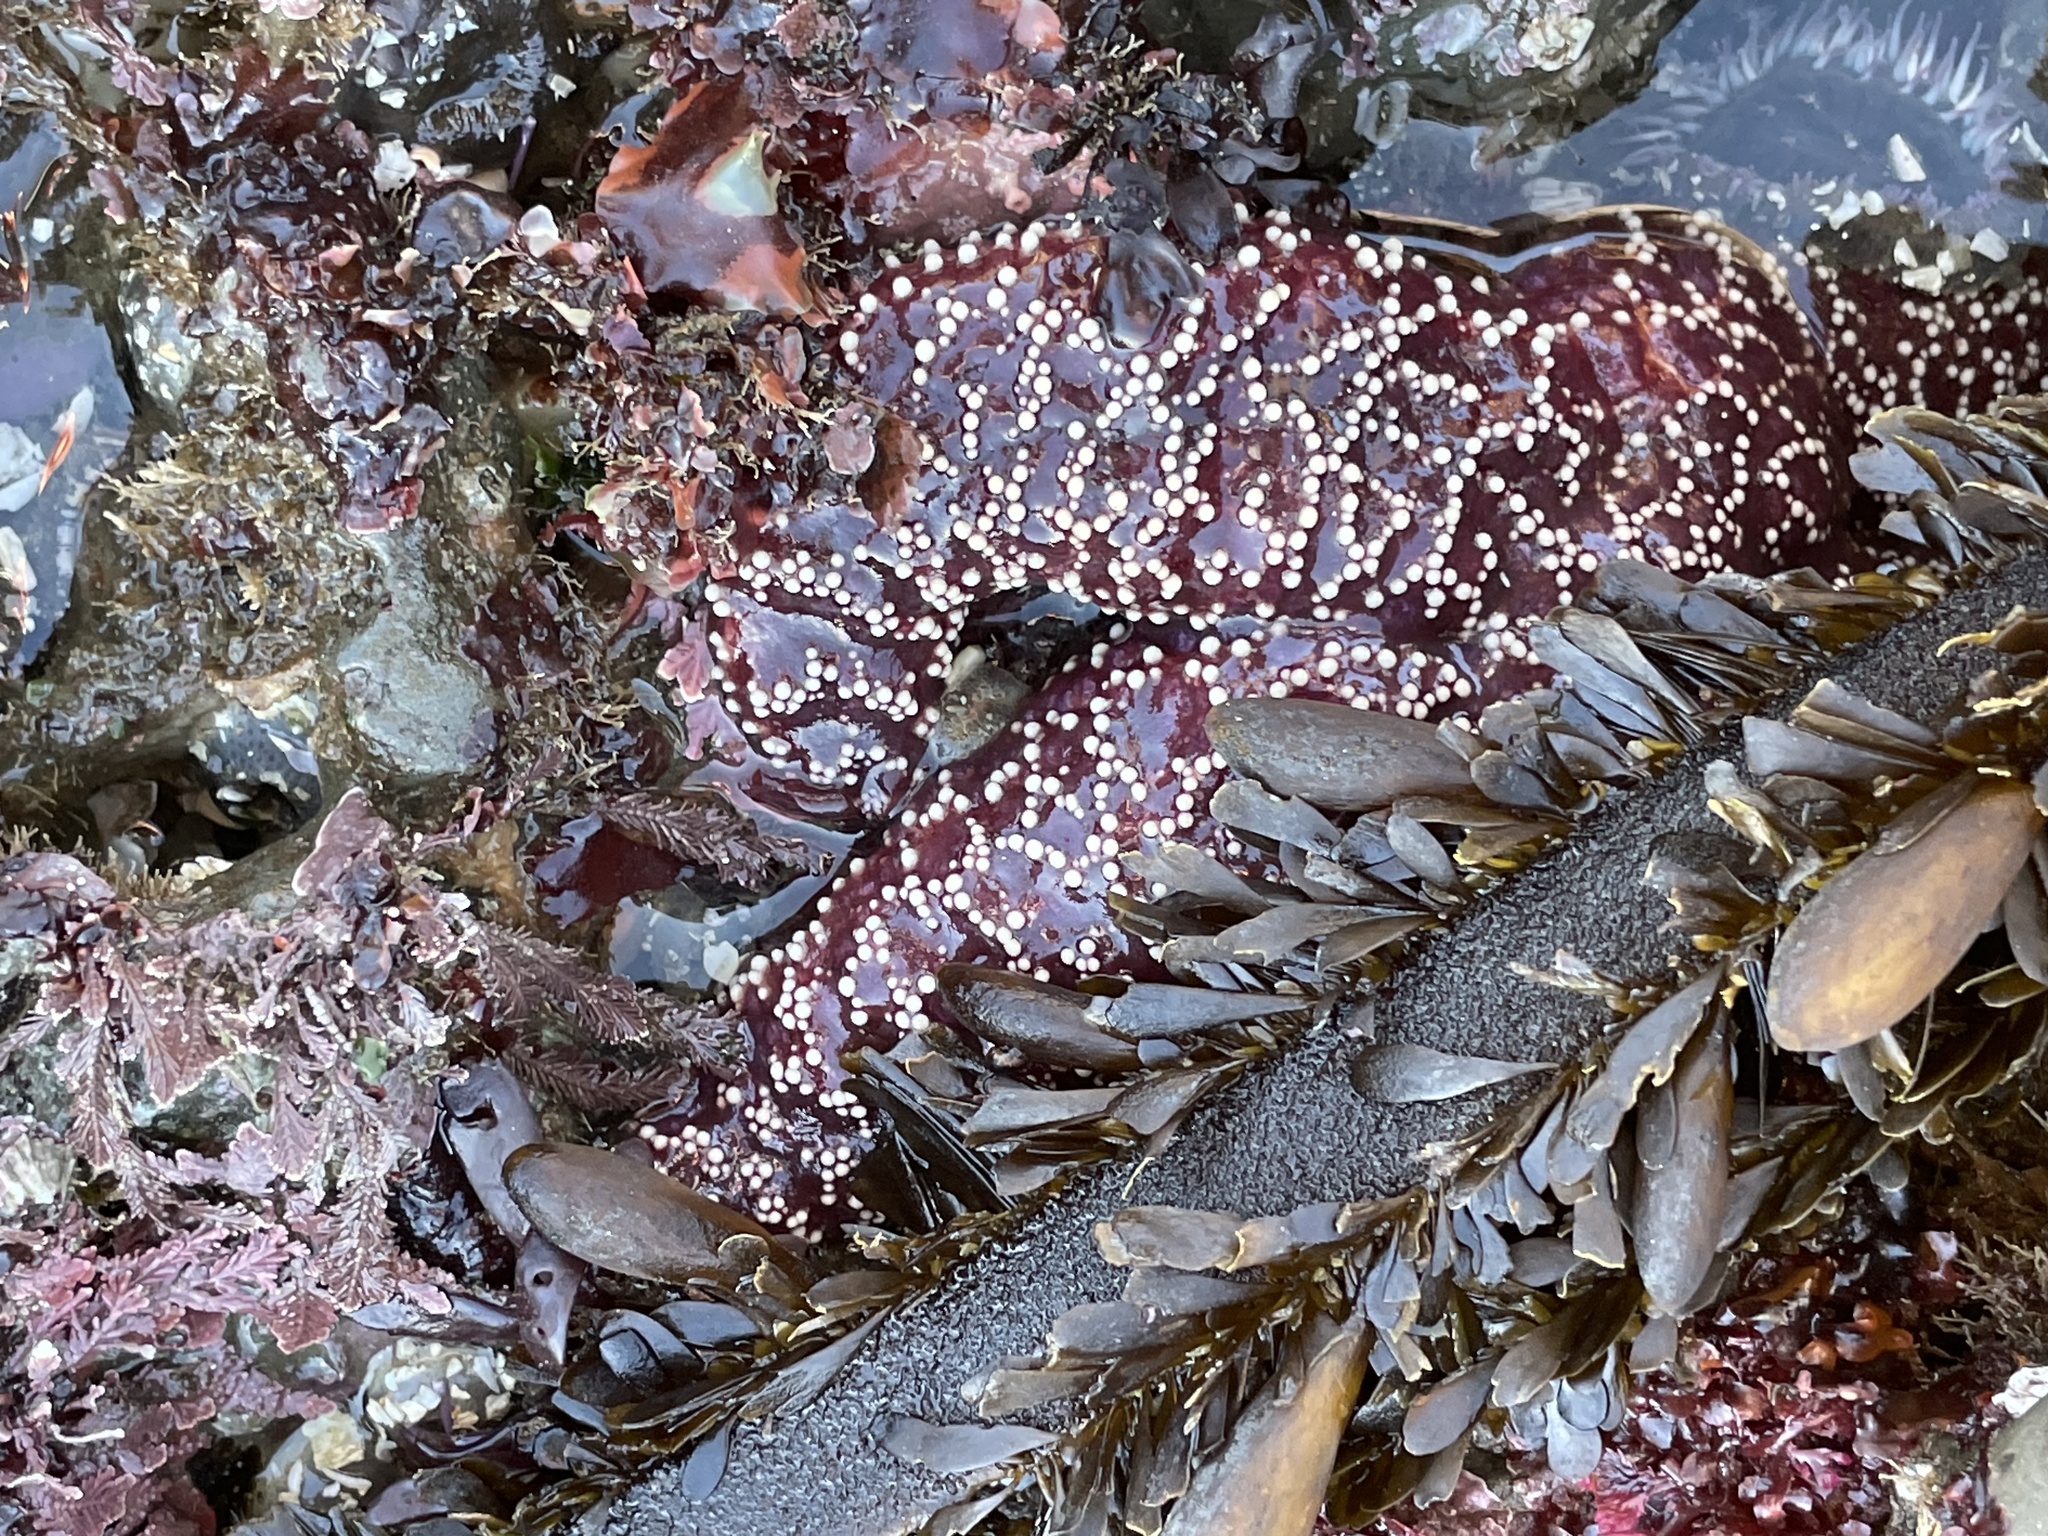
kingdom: Animalia
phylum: Echinodermata
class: Asteroidea
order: Forcipulatida
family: Asteriidae
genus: Pisaster
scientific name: Pisaster ochraceus
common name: Ochre stars
